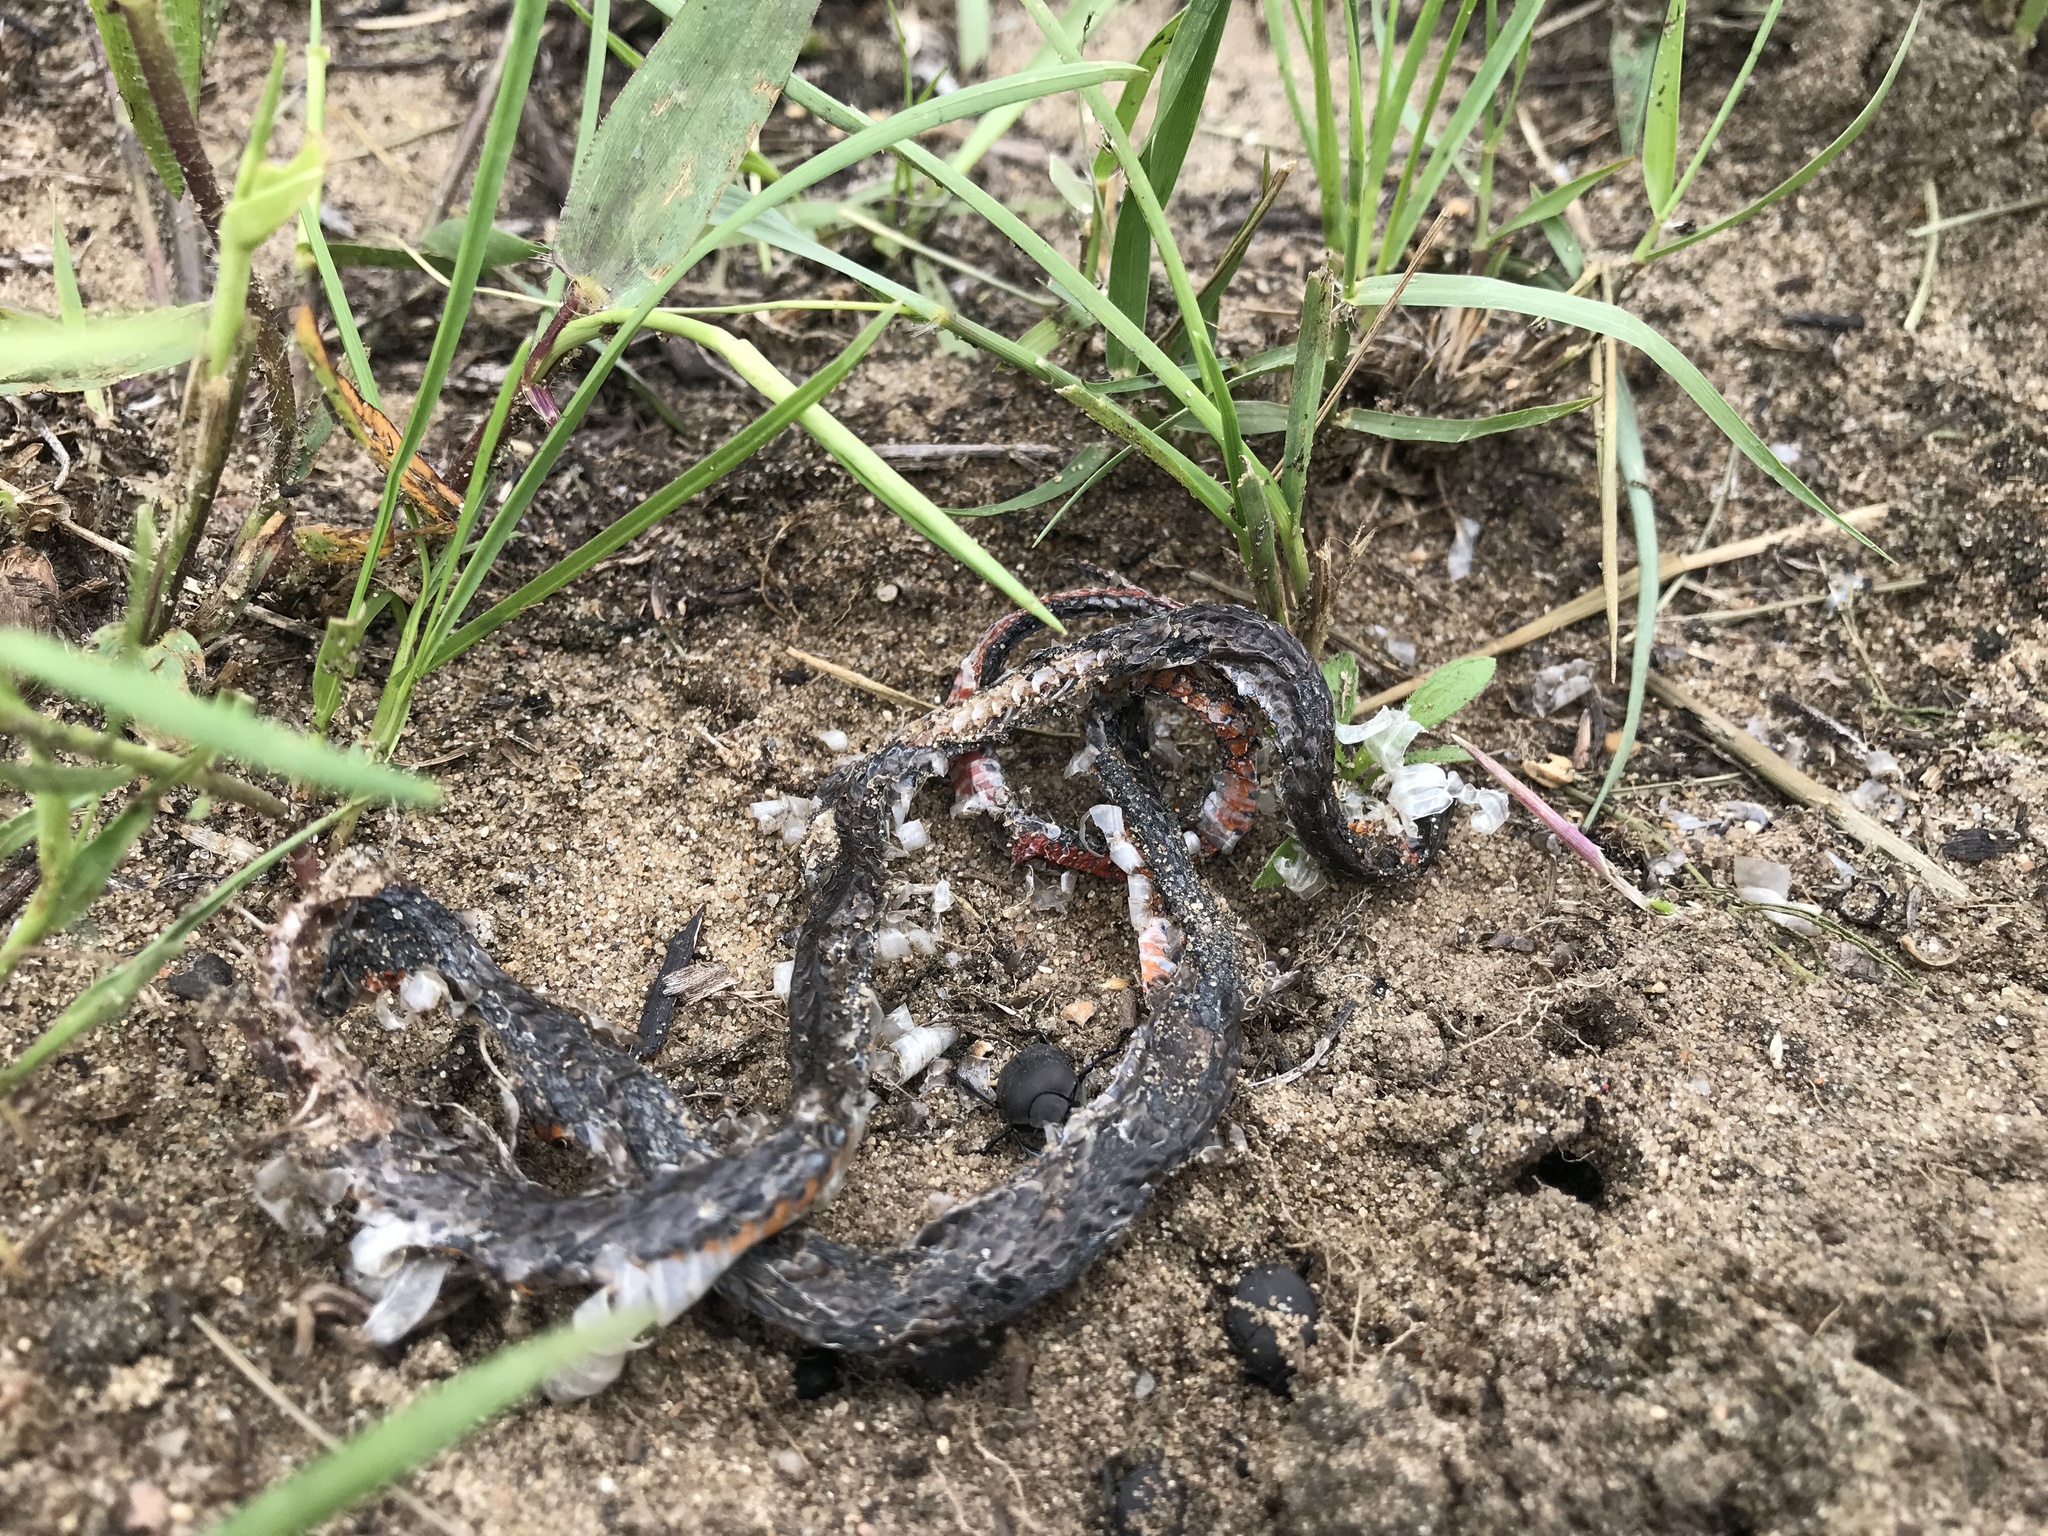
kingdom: Animalia
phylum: Chordata
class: Squamata
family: Colubridae
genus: Diadophis
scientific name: Diadophis punctatus
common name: Ringneck snake
